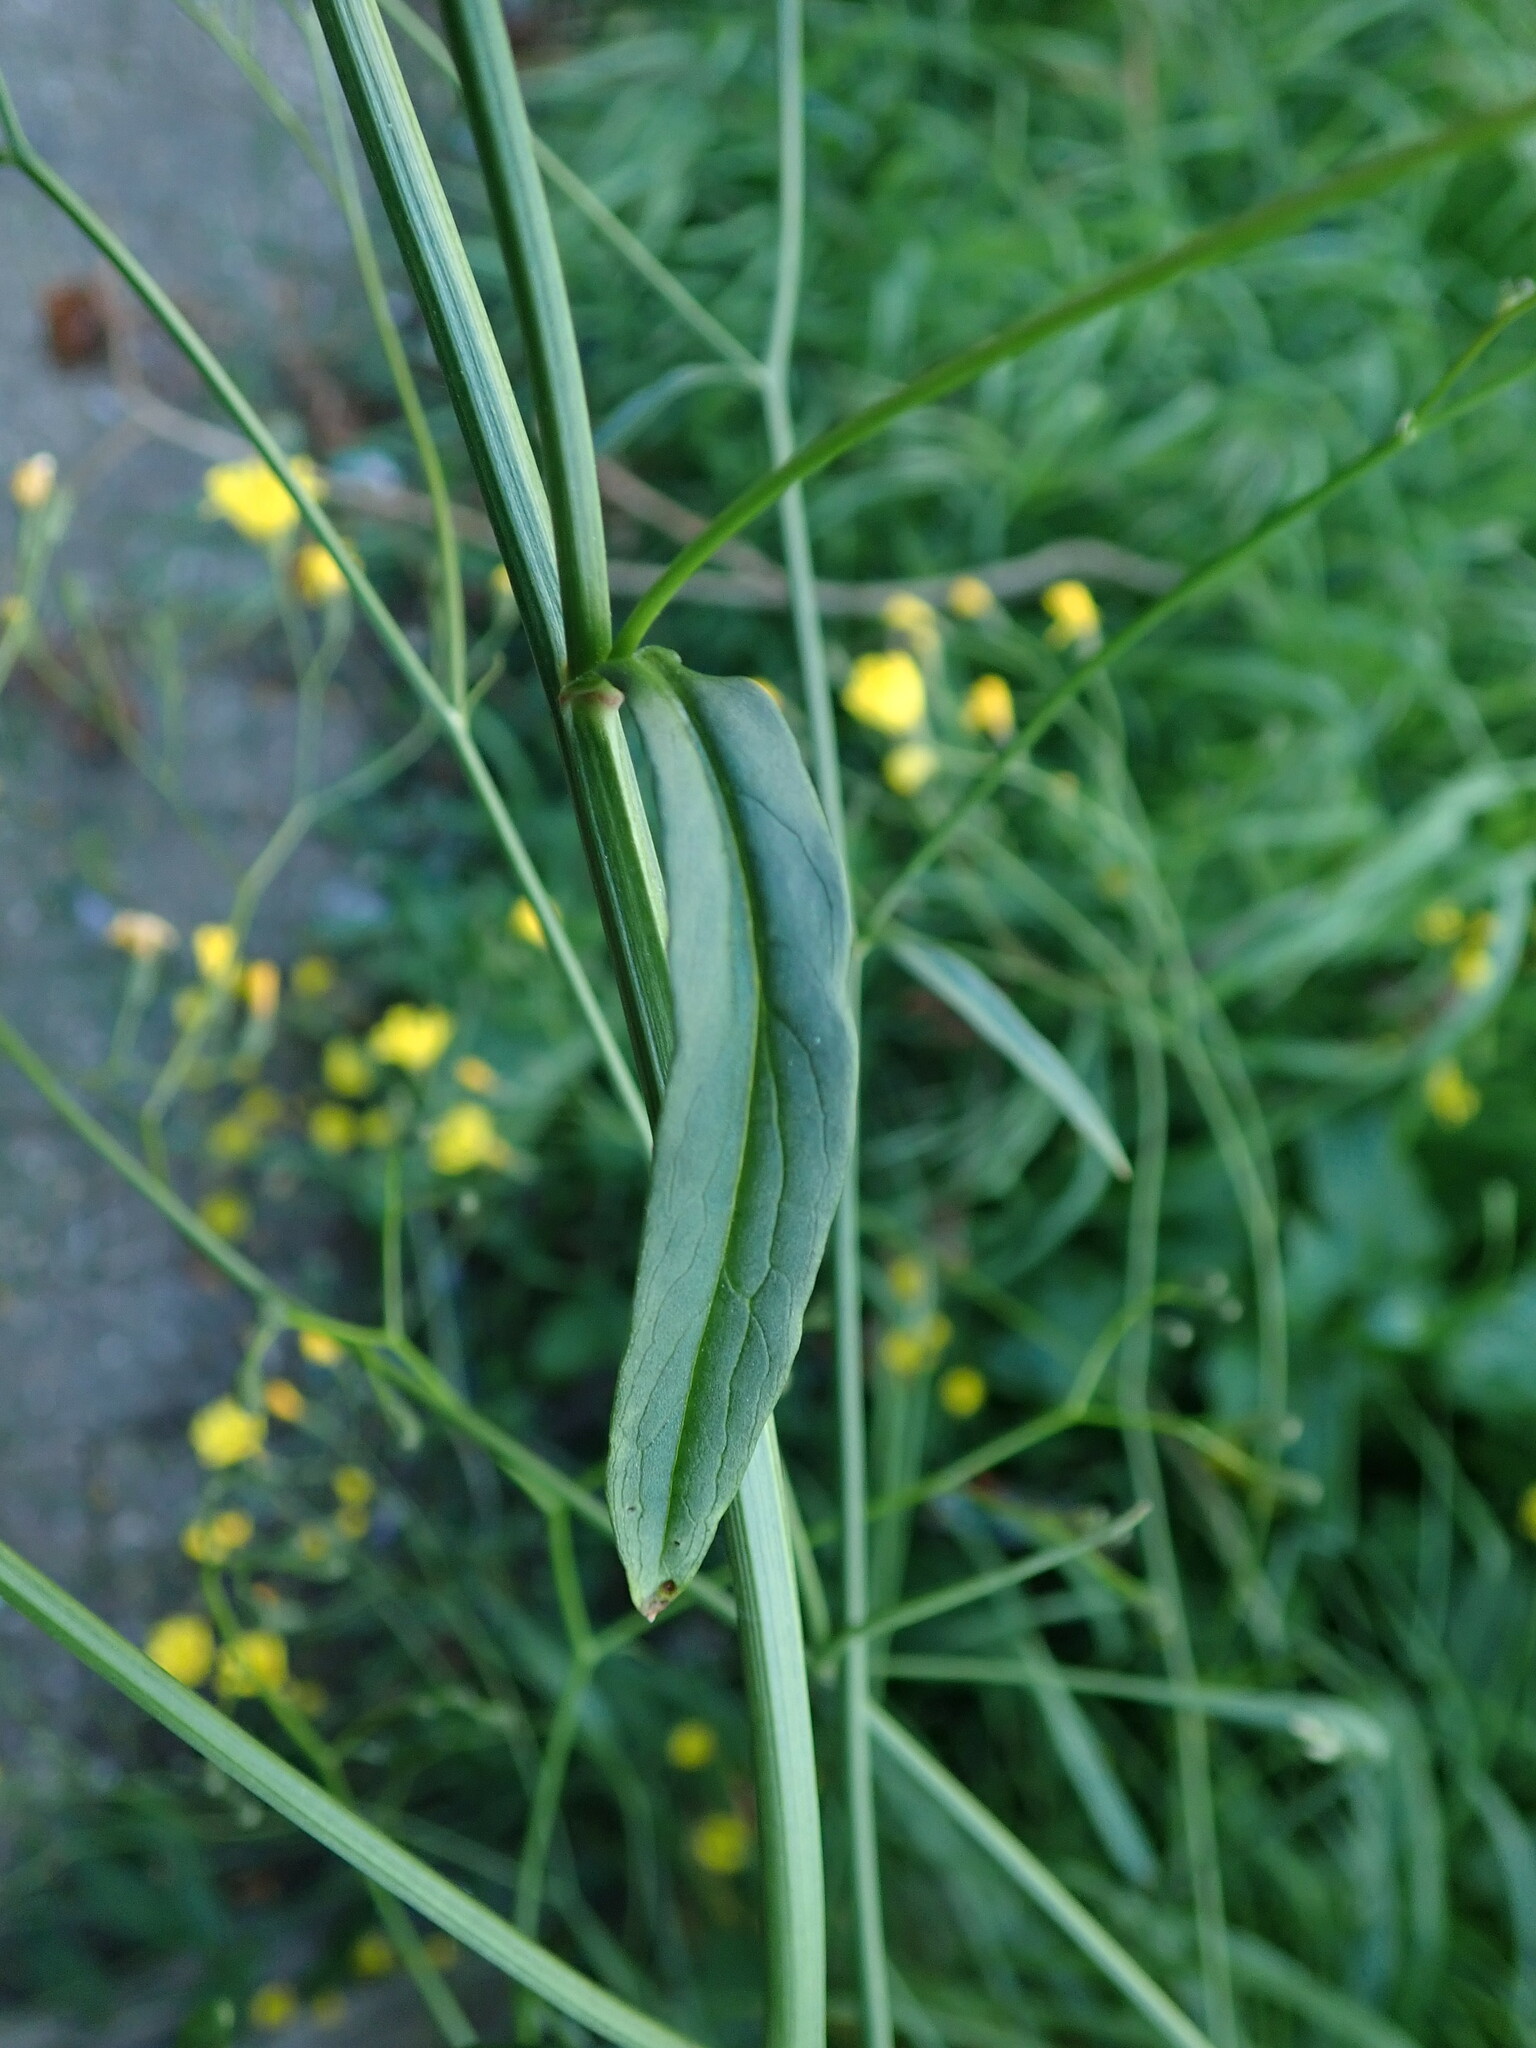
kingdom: Plantae
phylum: Tracheophyta
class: Magnoliopsida
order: Asterales
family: Asteraceae
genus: Lapsana
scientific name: Lapsana communis
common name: Nipplewort
